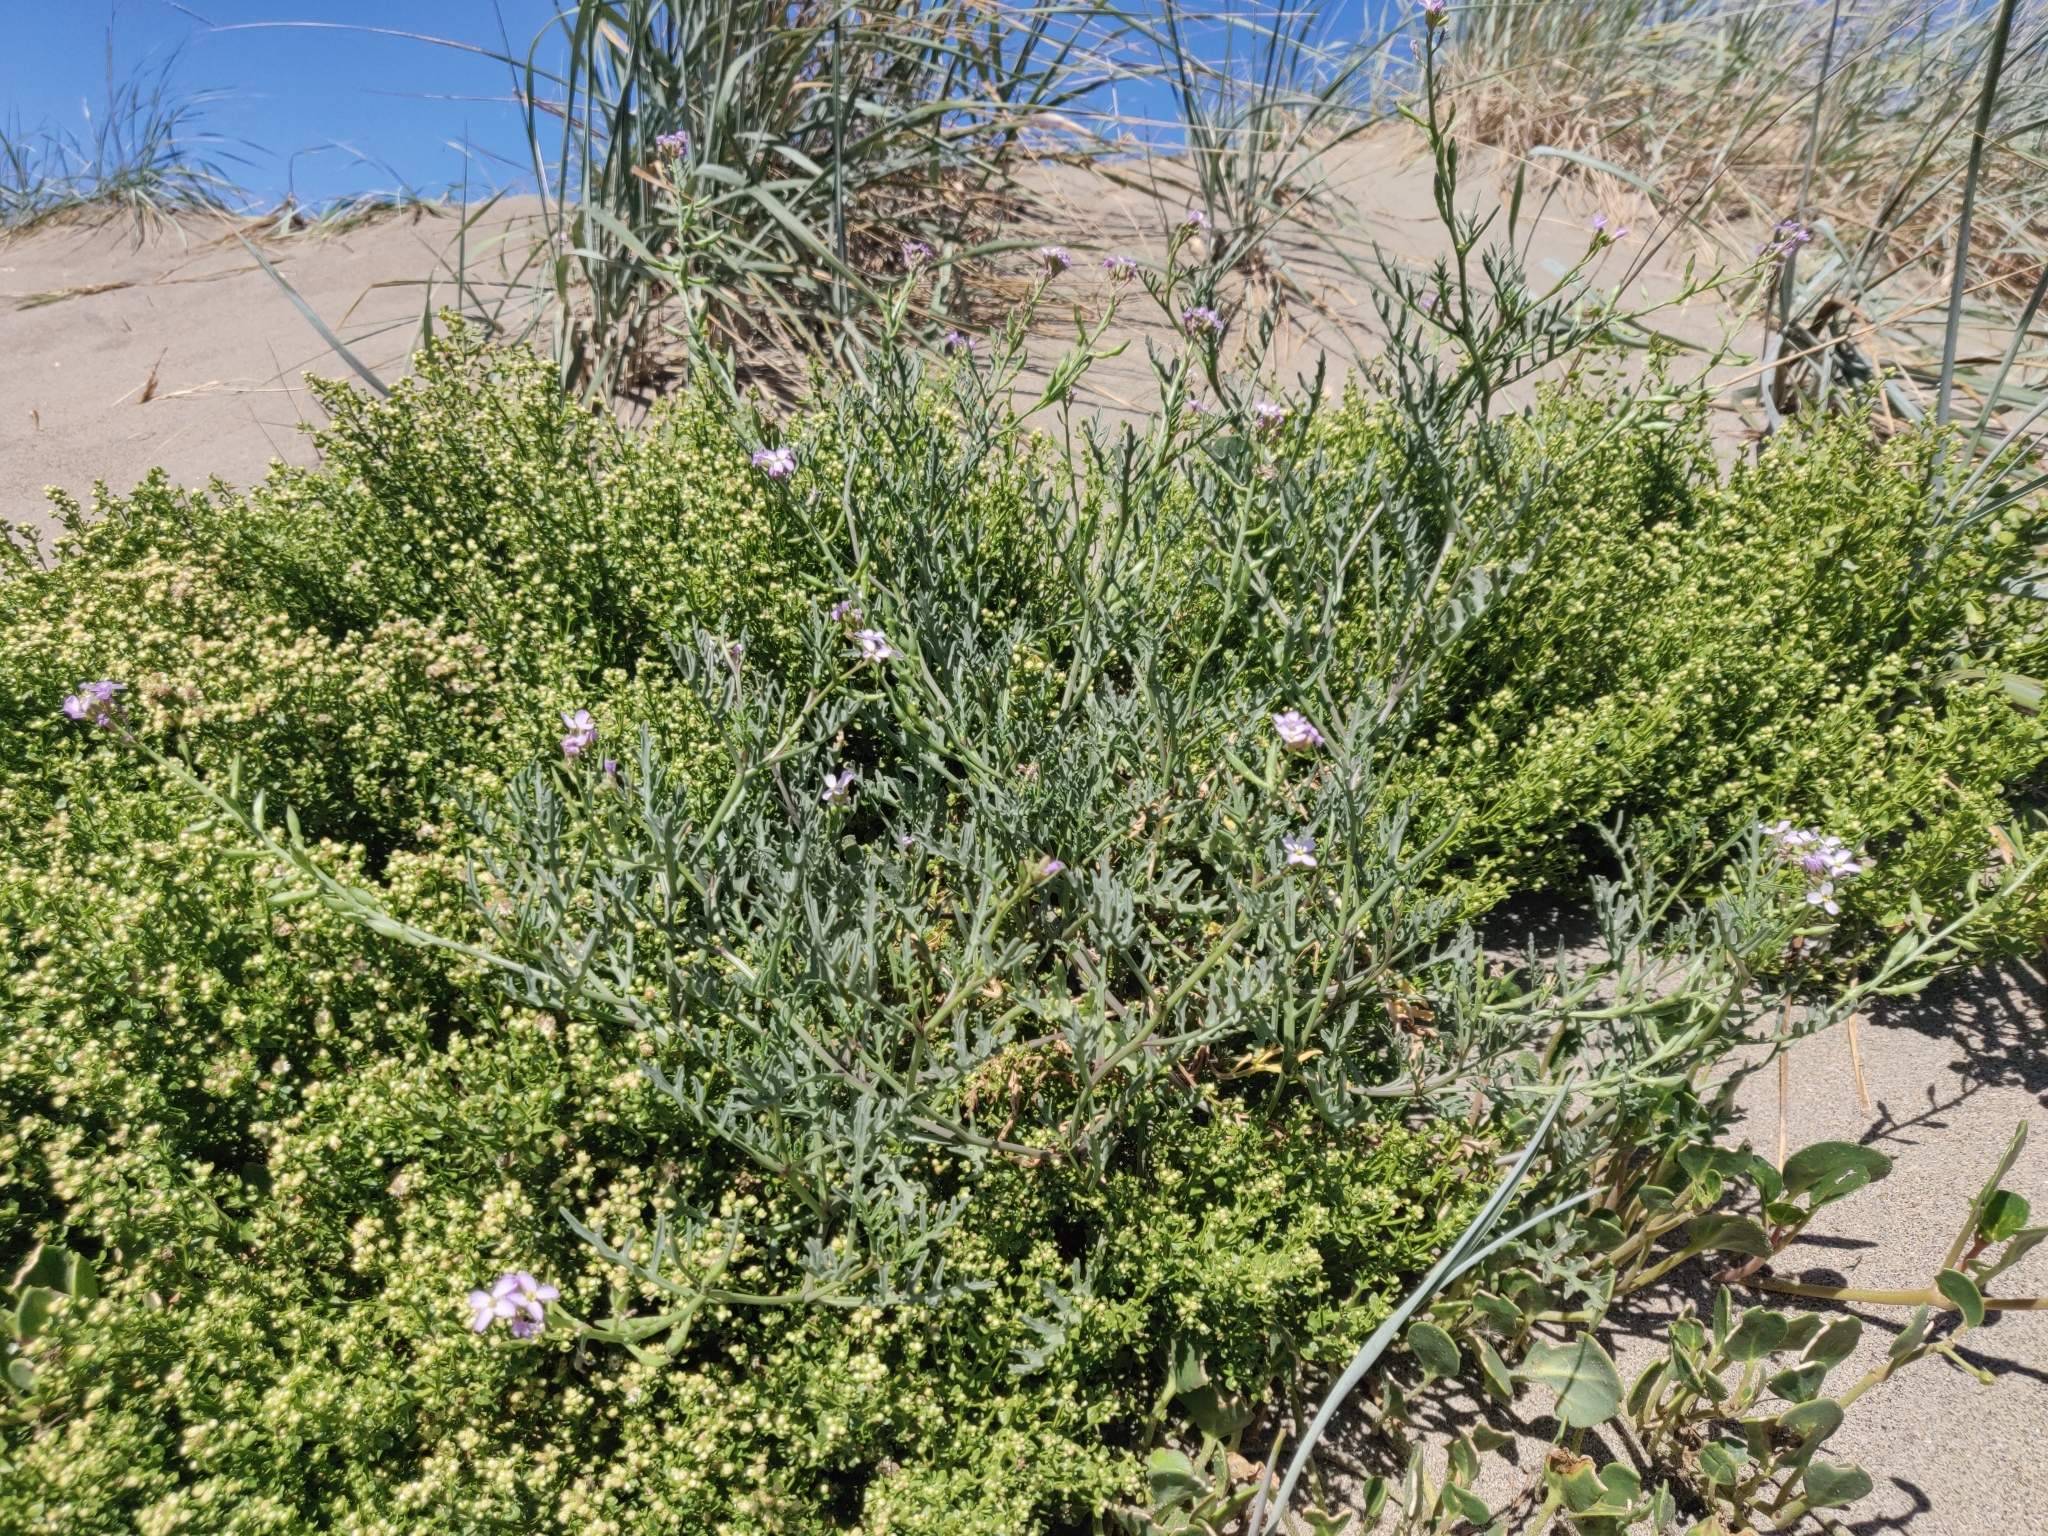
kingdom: Plantae
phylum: Tracheophyta
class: Magnoliopsida
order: Brassicales
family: Brassicaceae
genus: Cakile
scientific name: Cakile maritima
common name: Sea rocket
